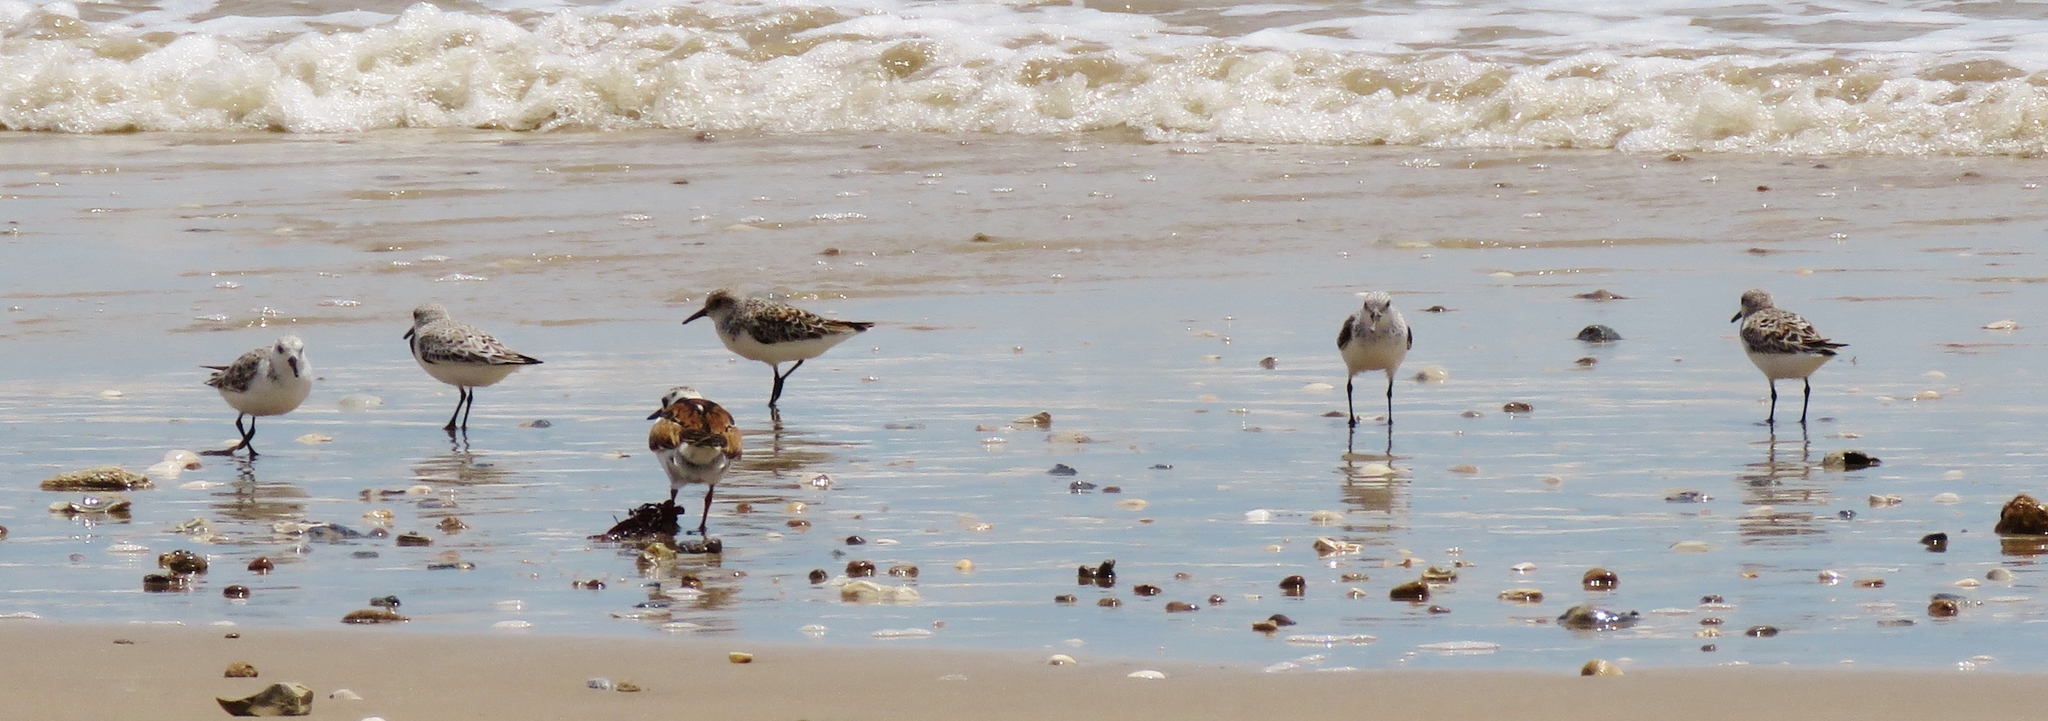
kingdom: Animalia
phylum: Chordata
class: Aves
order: Charadriiformes
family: Scolopacidae
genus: Calidris
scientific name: Calidris alba
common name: Sanderling
